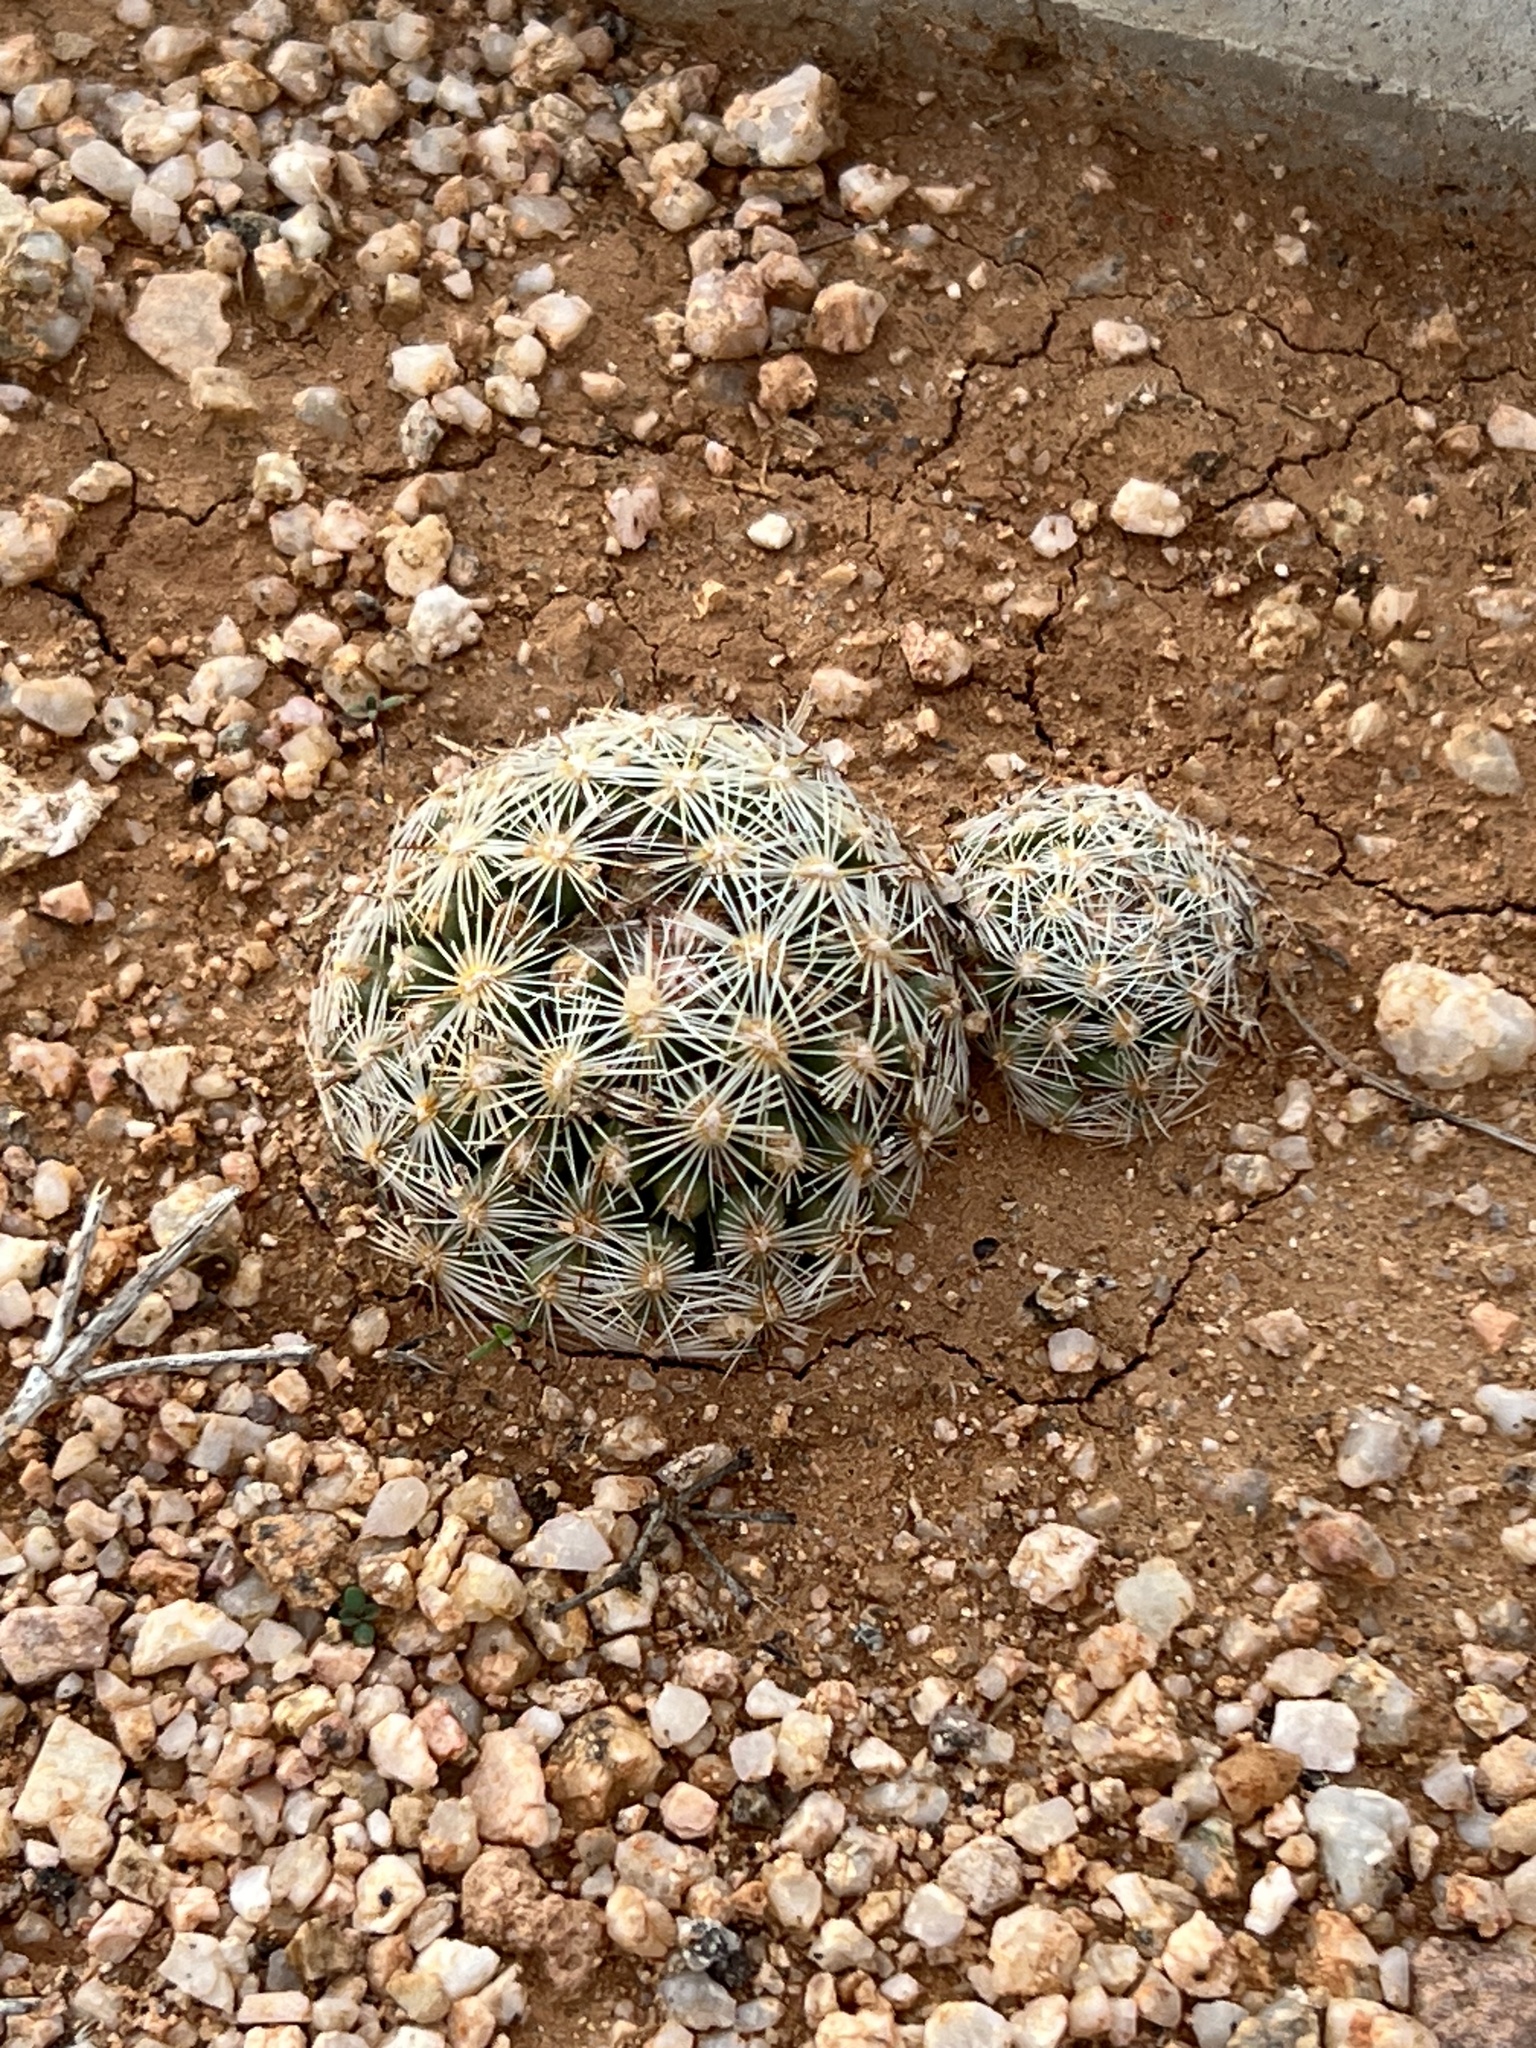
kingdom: Plantae
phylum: Tracheophyta
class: Magnoliopsida
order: Caryophyllales
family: Cactaceae
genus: Pelecyphora
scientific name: Pelecyphora vivipara
